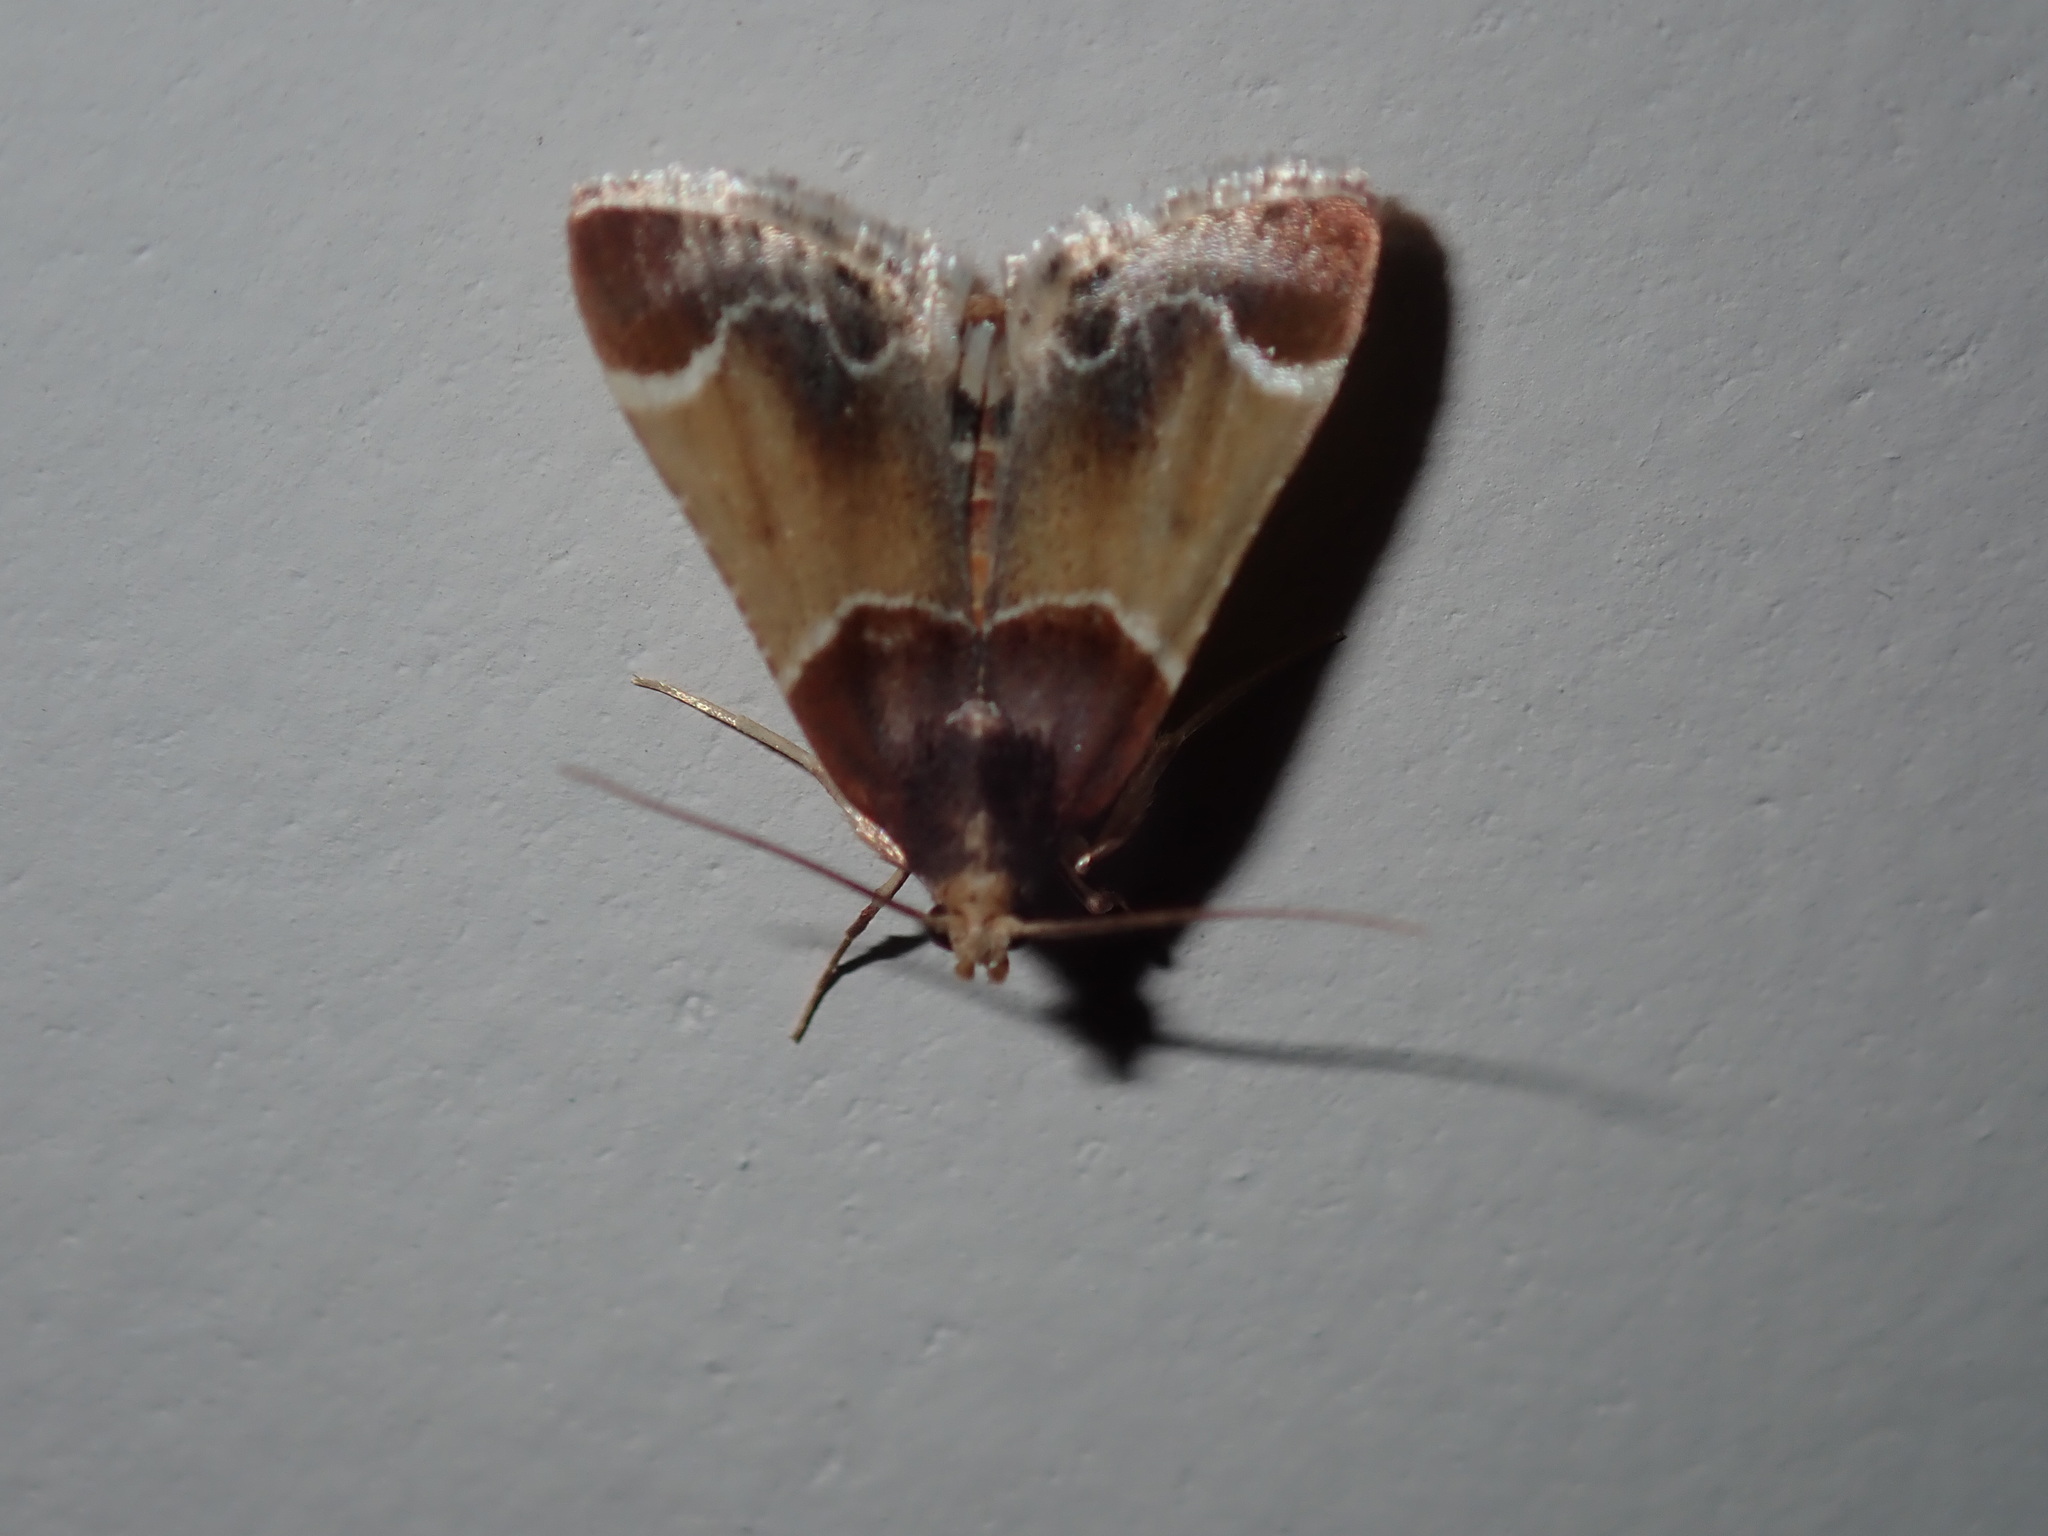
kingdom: Animalia
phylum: Arthropoda
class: Insecta
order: Lepidoptera
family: Pyralidae
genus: Pyralis
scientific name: Pyralis farinalis
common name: Meal moth
